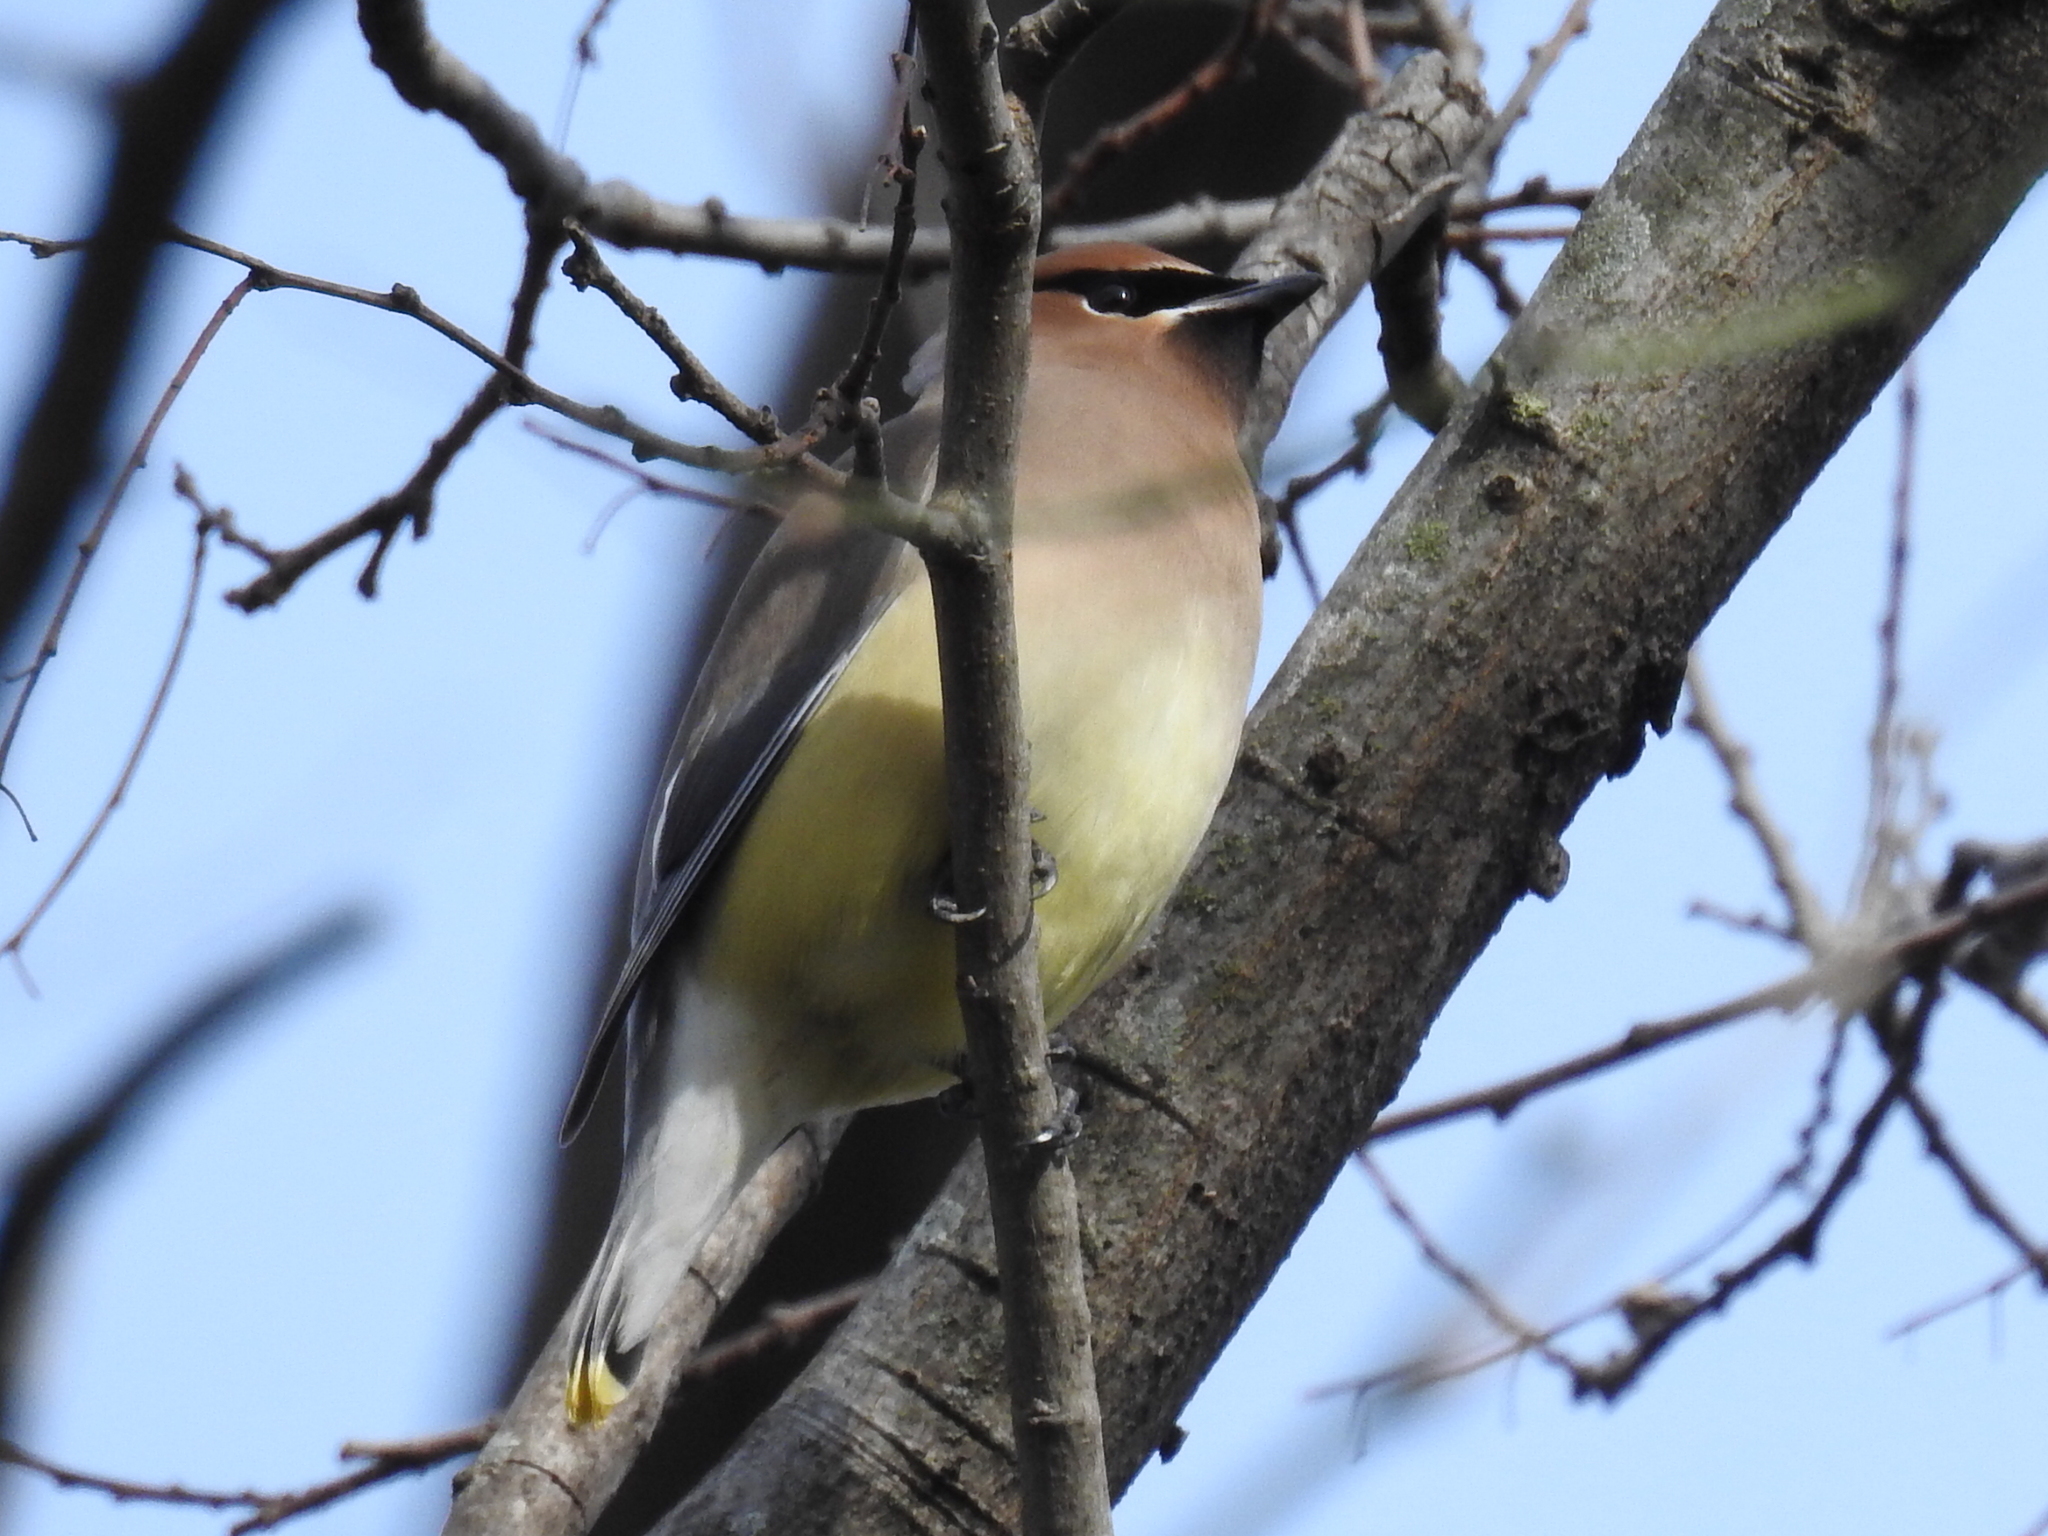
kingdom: Animalia
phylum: Chordata
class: Aves
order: Passeriformes
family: Bombycillidae
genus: Bombycilla
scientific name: Bombycilla cedrorum
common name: Cedar waxwing
